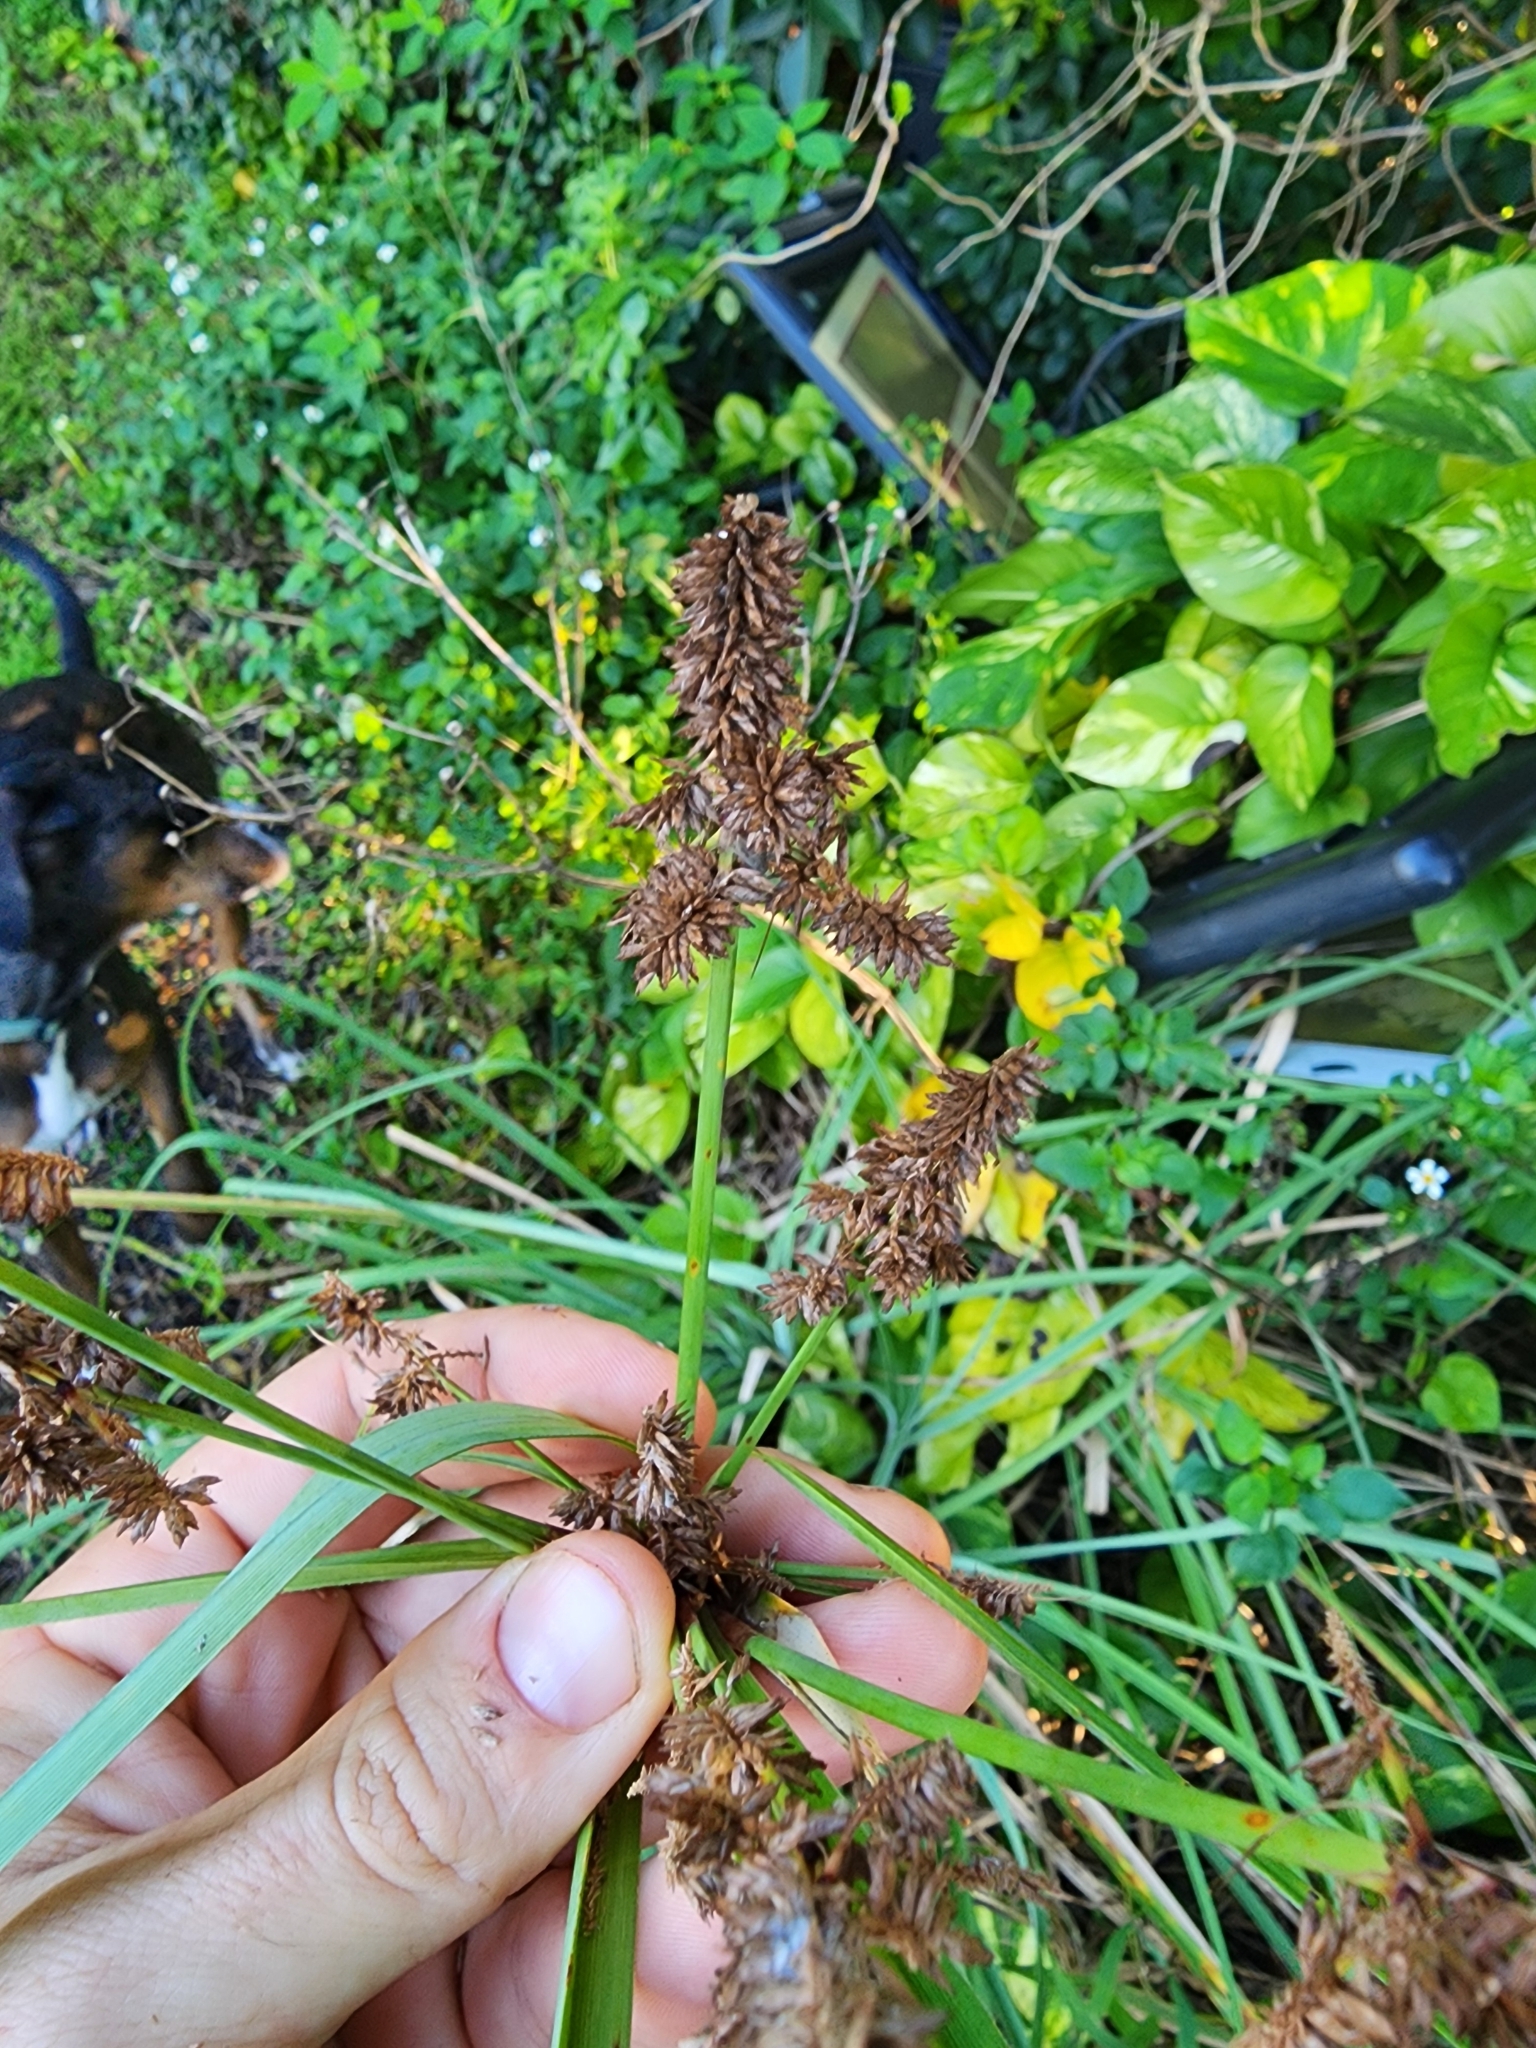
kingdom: Plantae
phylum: Tracheophyta
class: Liliopsida
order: Poales
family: Cyperaceae
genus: Cyperus
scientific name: Cyperus ligularis
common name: Swamp flat sedge
